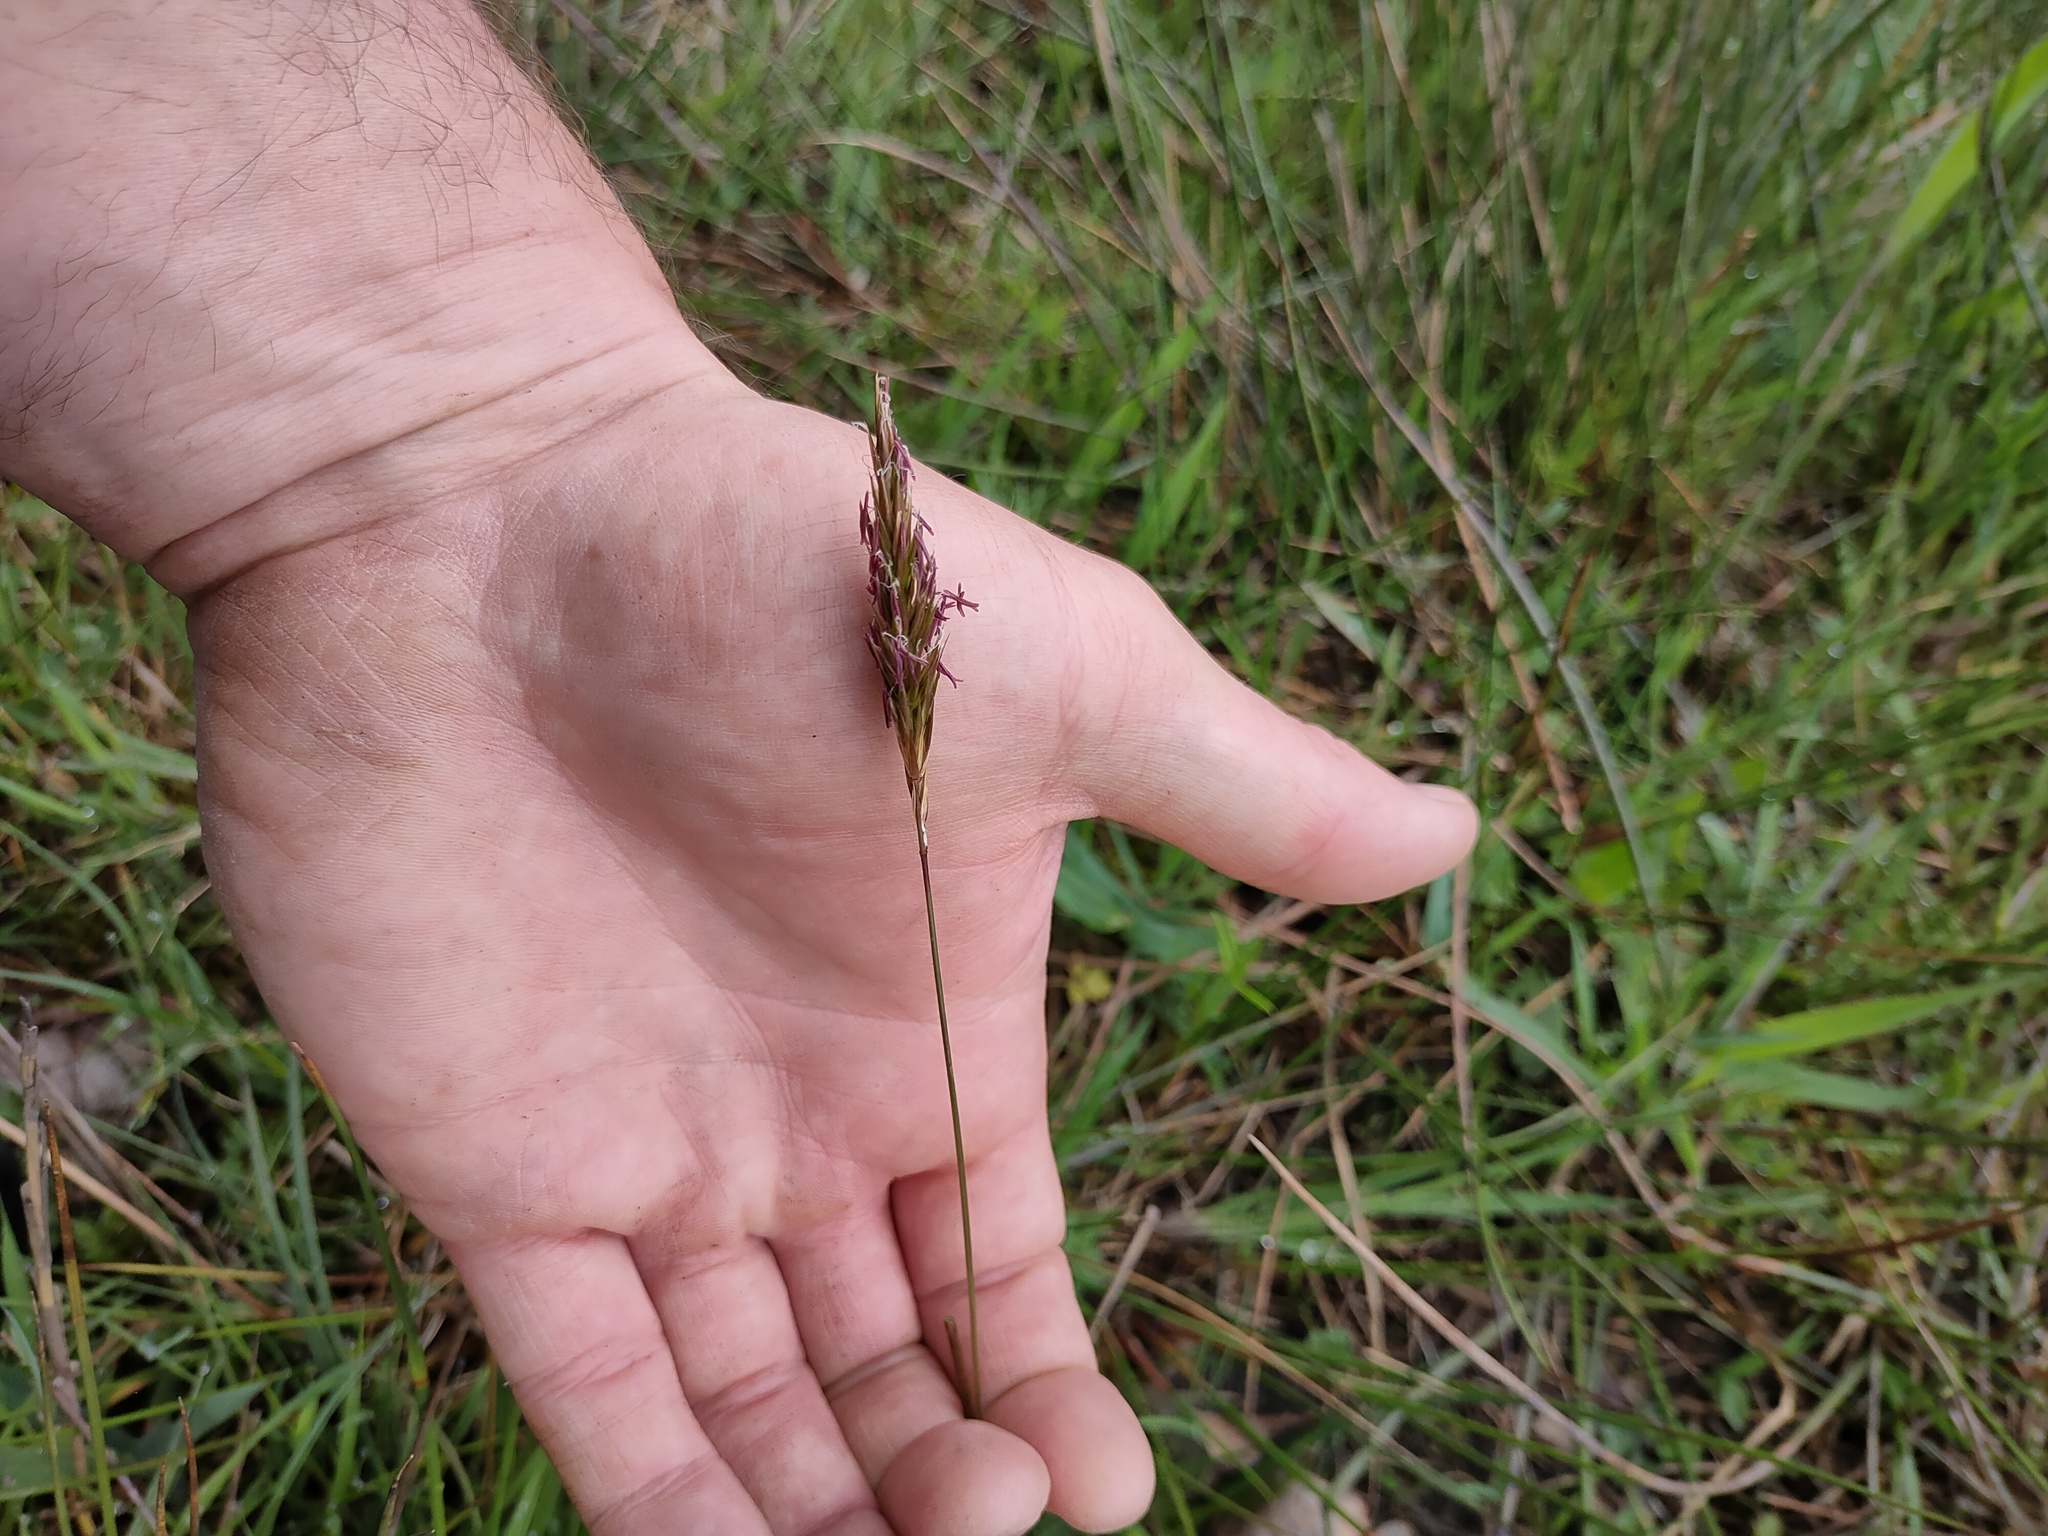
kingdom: Plantae
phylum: Tracheophyta
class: Liliopsida
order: Poales
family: Poaceae
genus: Anthoxanthum
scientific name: Anthoxanthum odoratum
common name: Sweet vernalgrass
